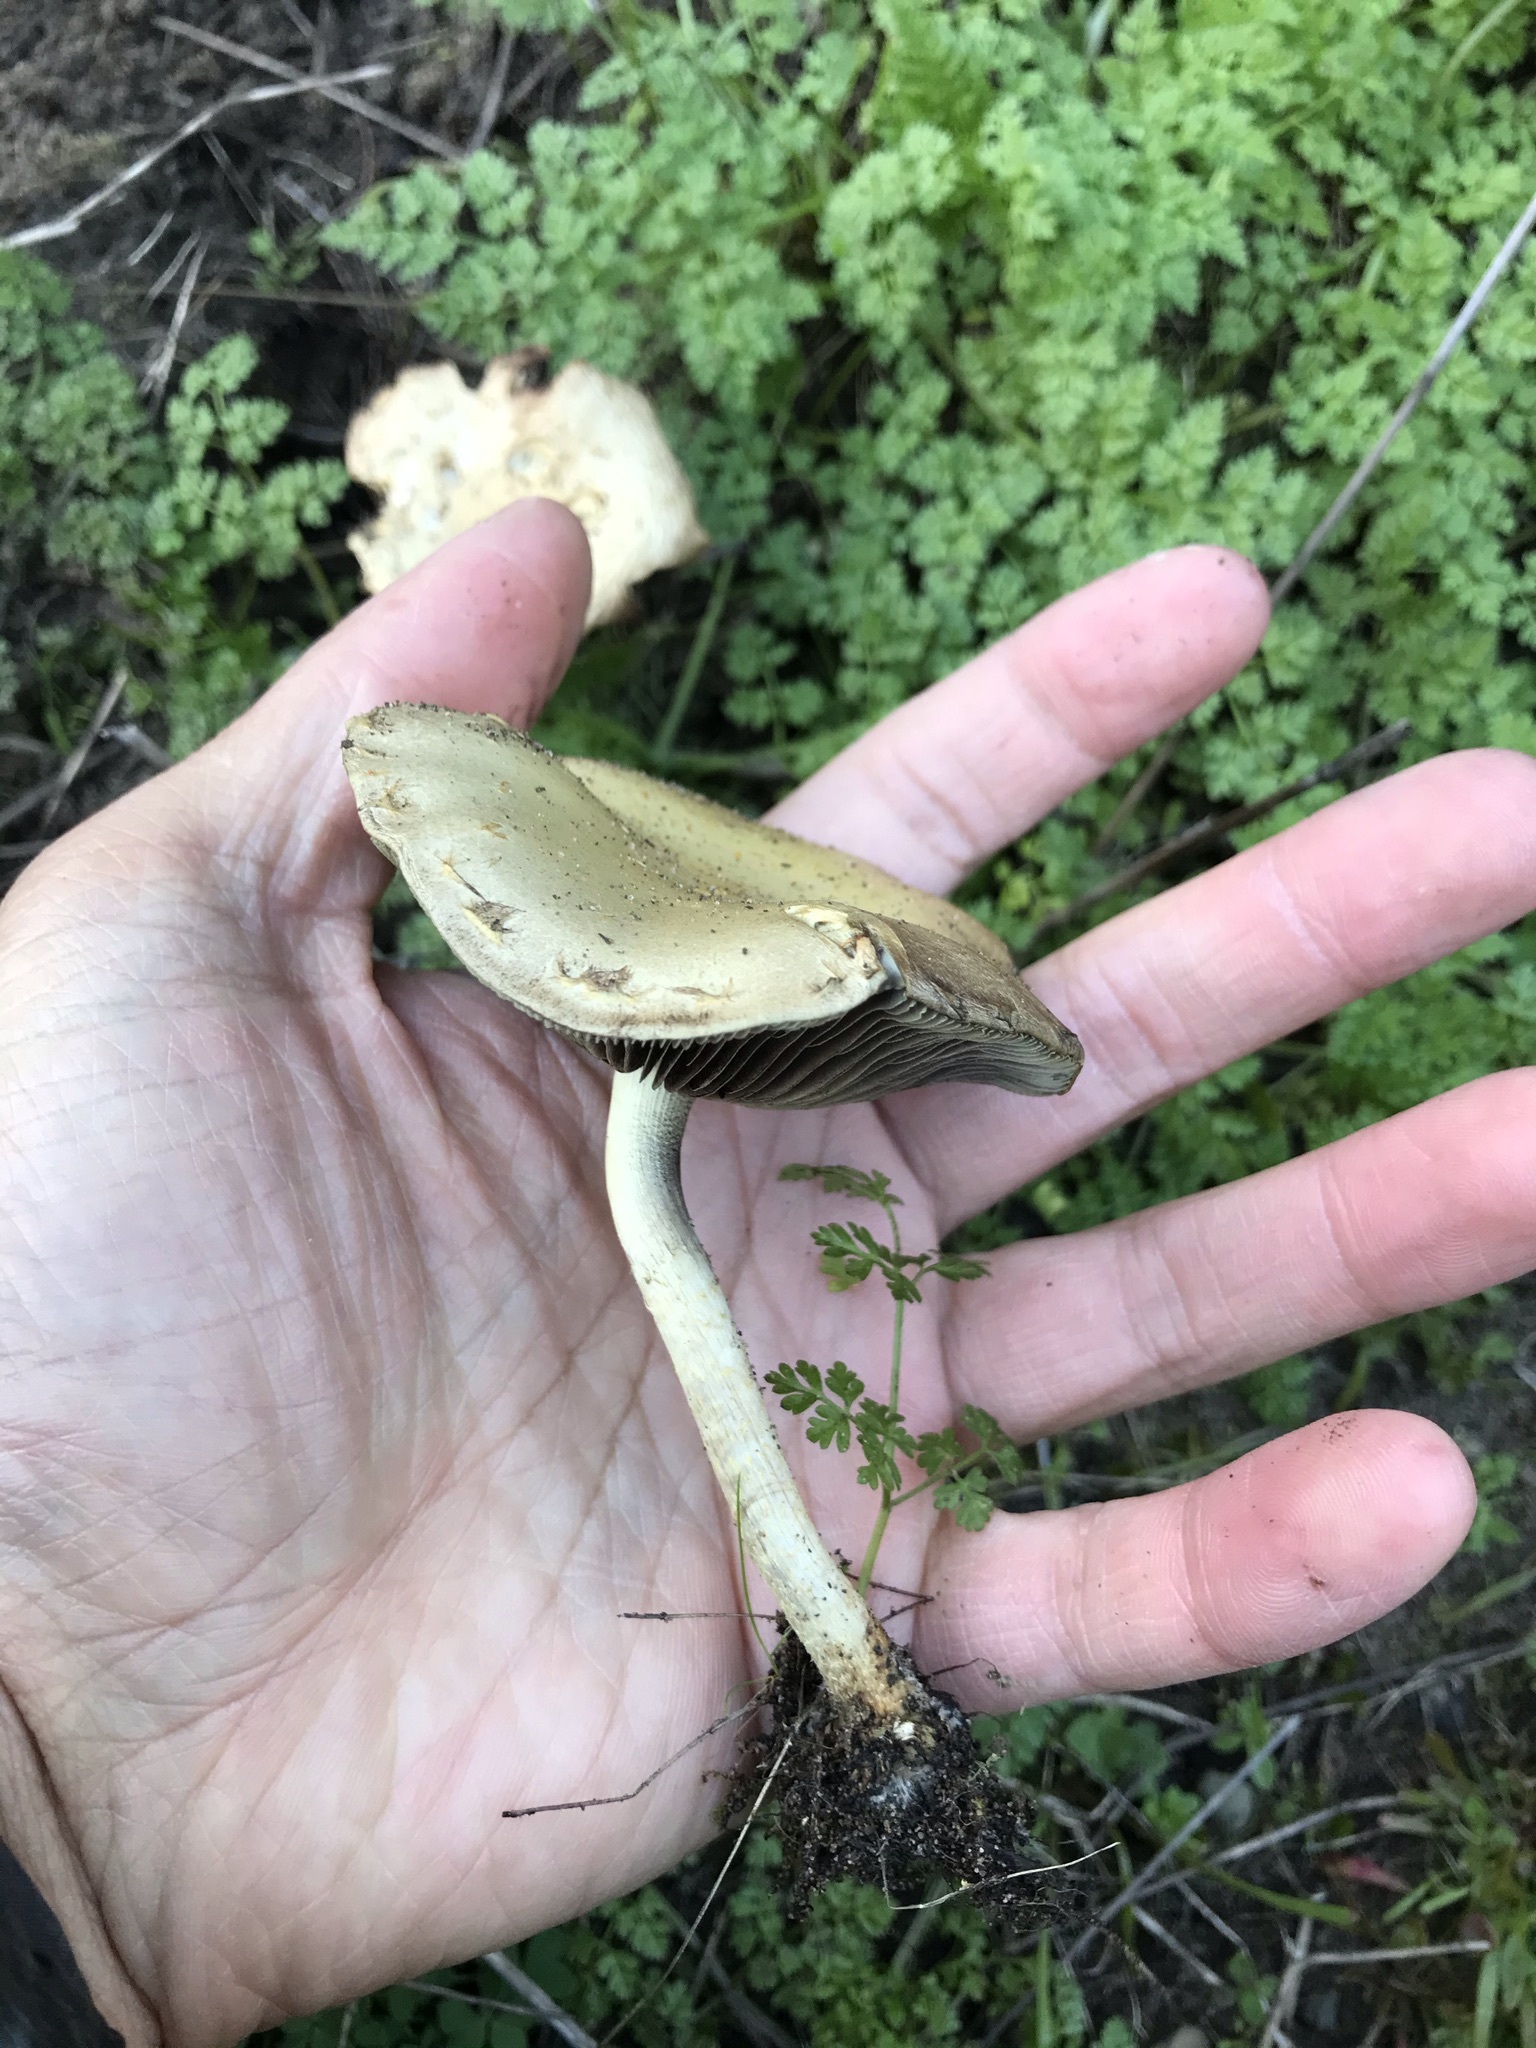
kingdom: Fungi
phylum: Basidiomycota
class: Agaricomycetes
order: Agaricales
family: Strophariaceae
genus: Leratiomyces
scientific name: Leratiomyces percevalii
